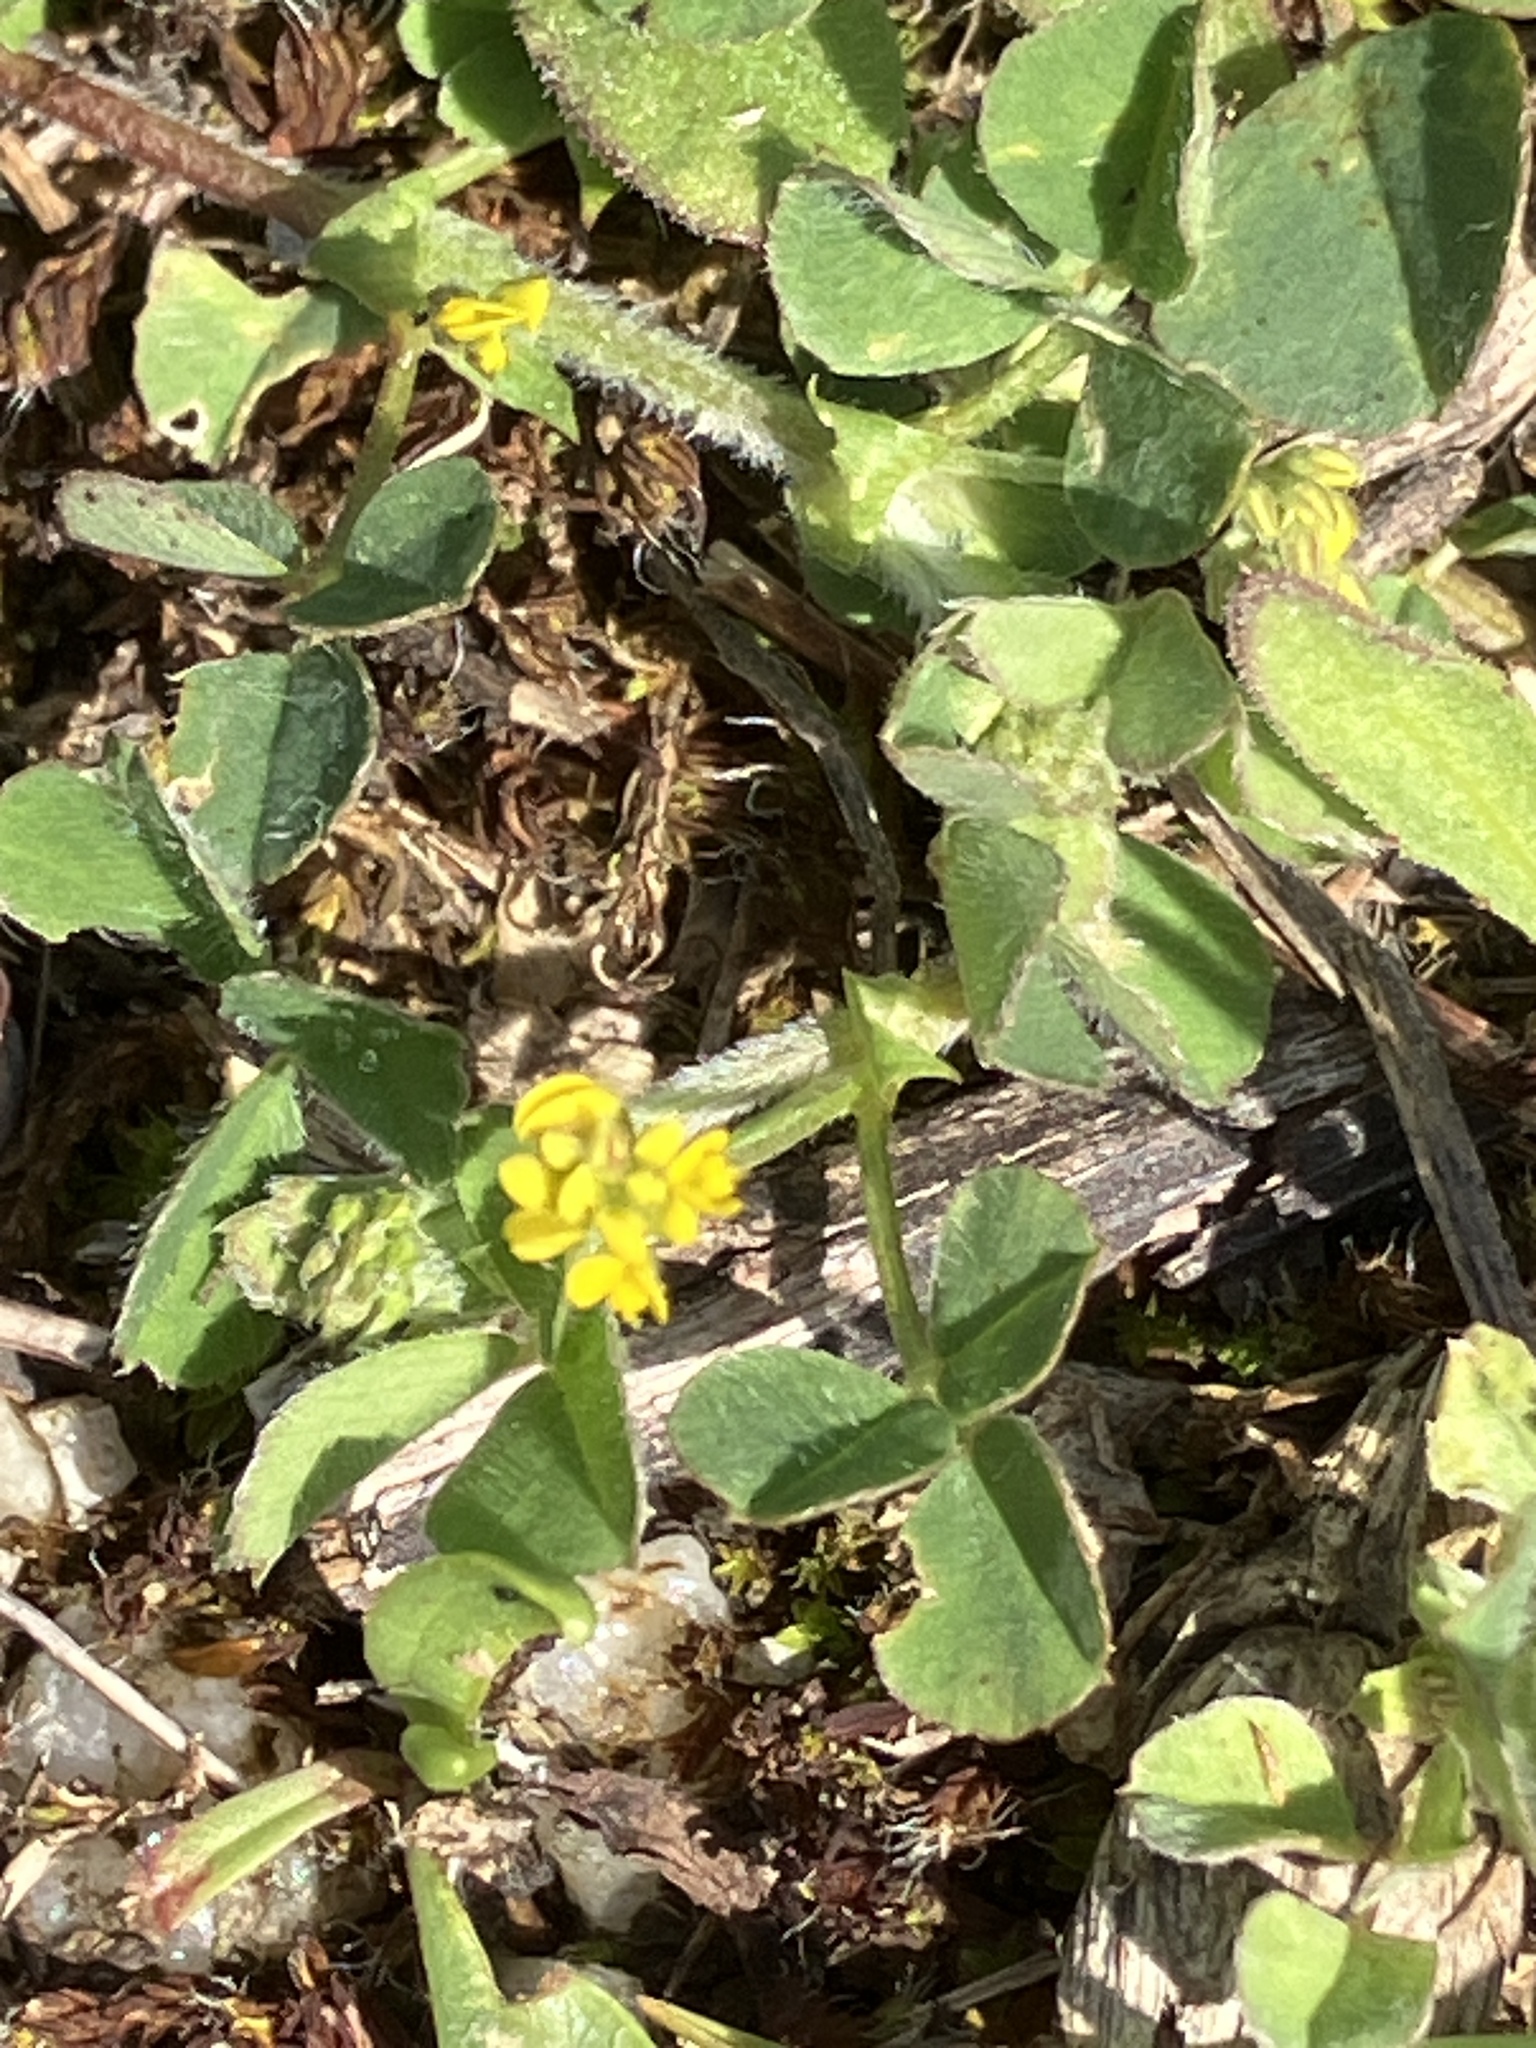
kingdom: Plantae
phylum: Tracheophyta
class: Magnoliopsida
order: Fabales
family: Fabaceae
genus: Medicago
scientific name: Medicago lupulina
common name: Black medick
